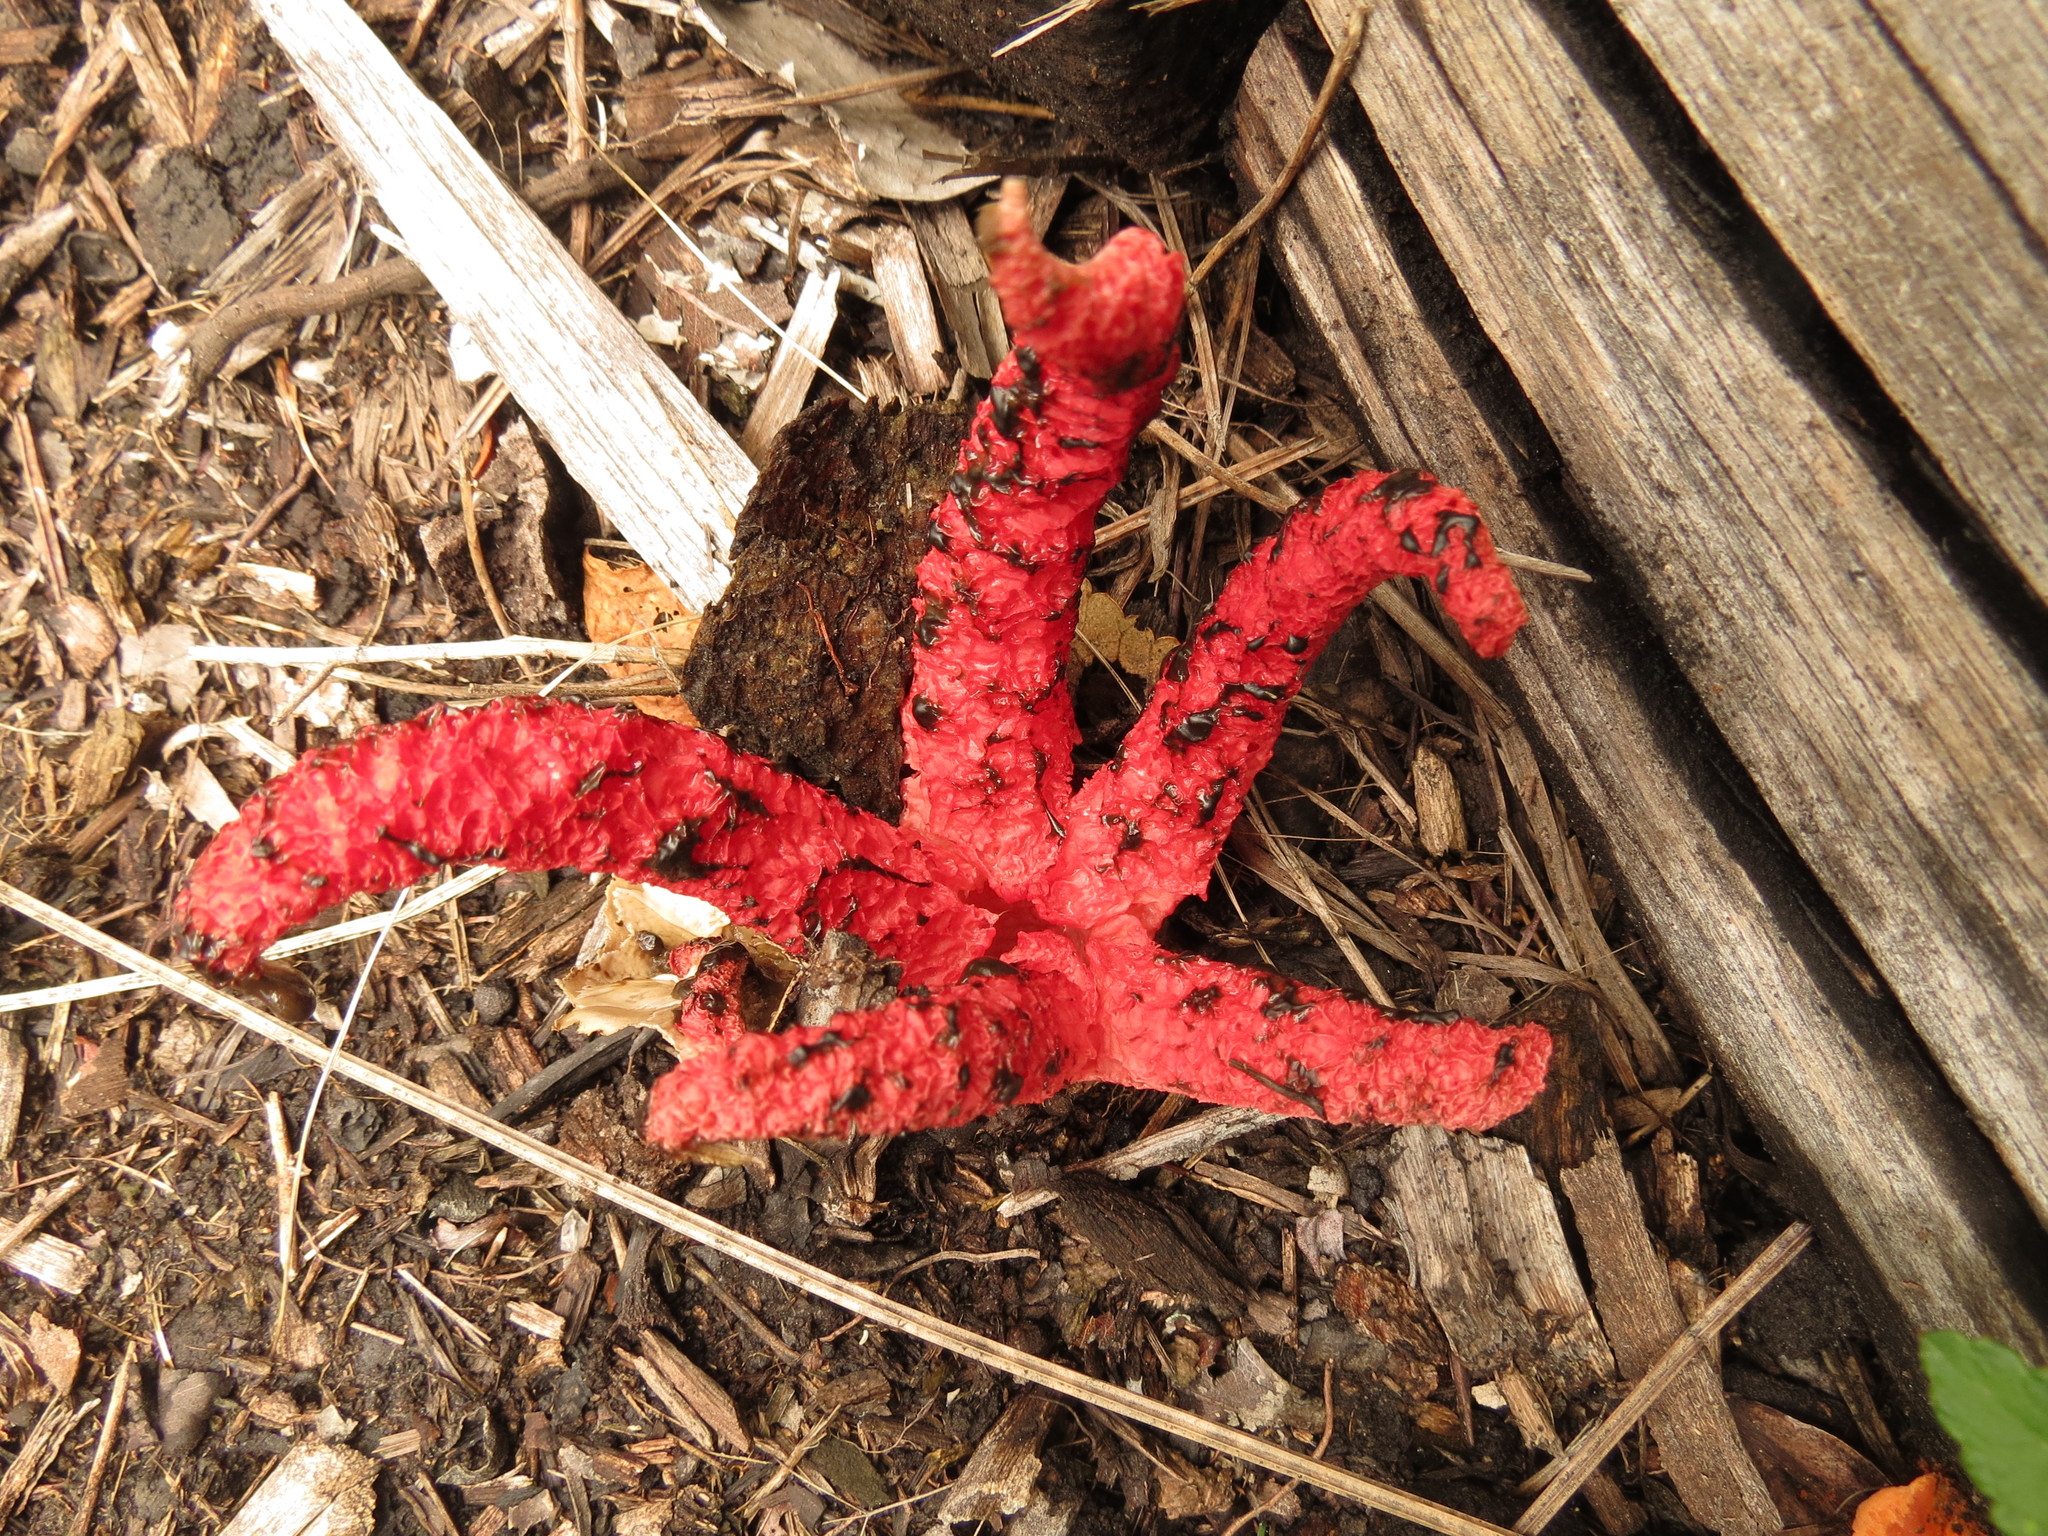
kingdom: Fungi
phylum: Basidiomycota
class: Agaricomycetes
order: Phallales
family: Phallaceae
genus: Clathrus
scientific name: Clathrus archeri
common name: Devil's fingers
